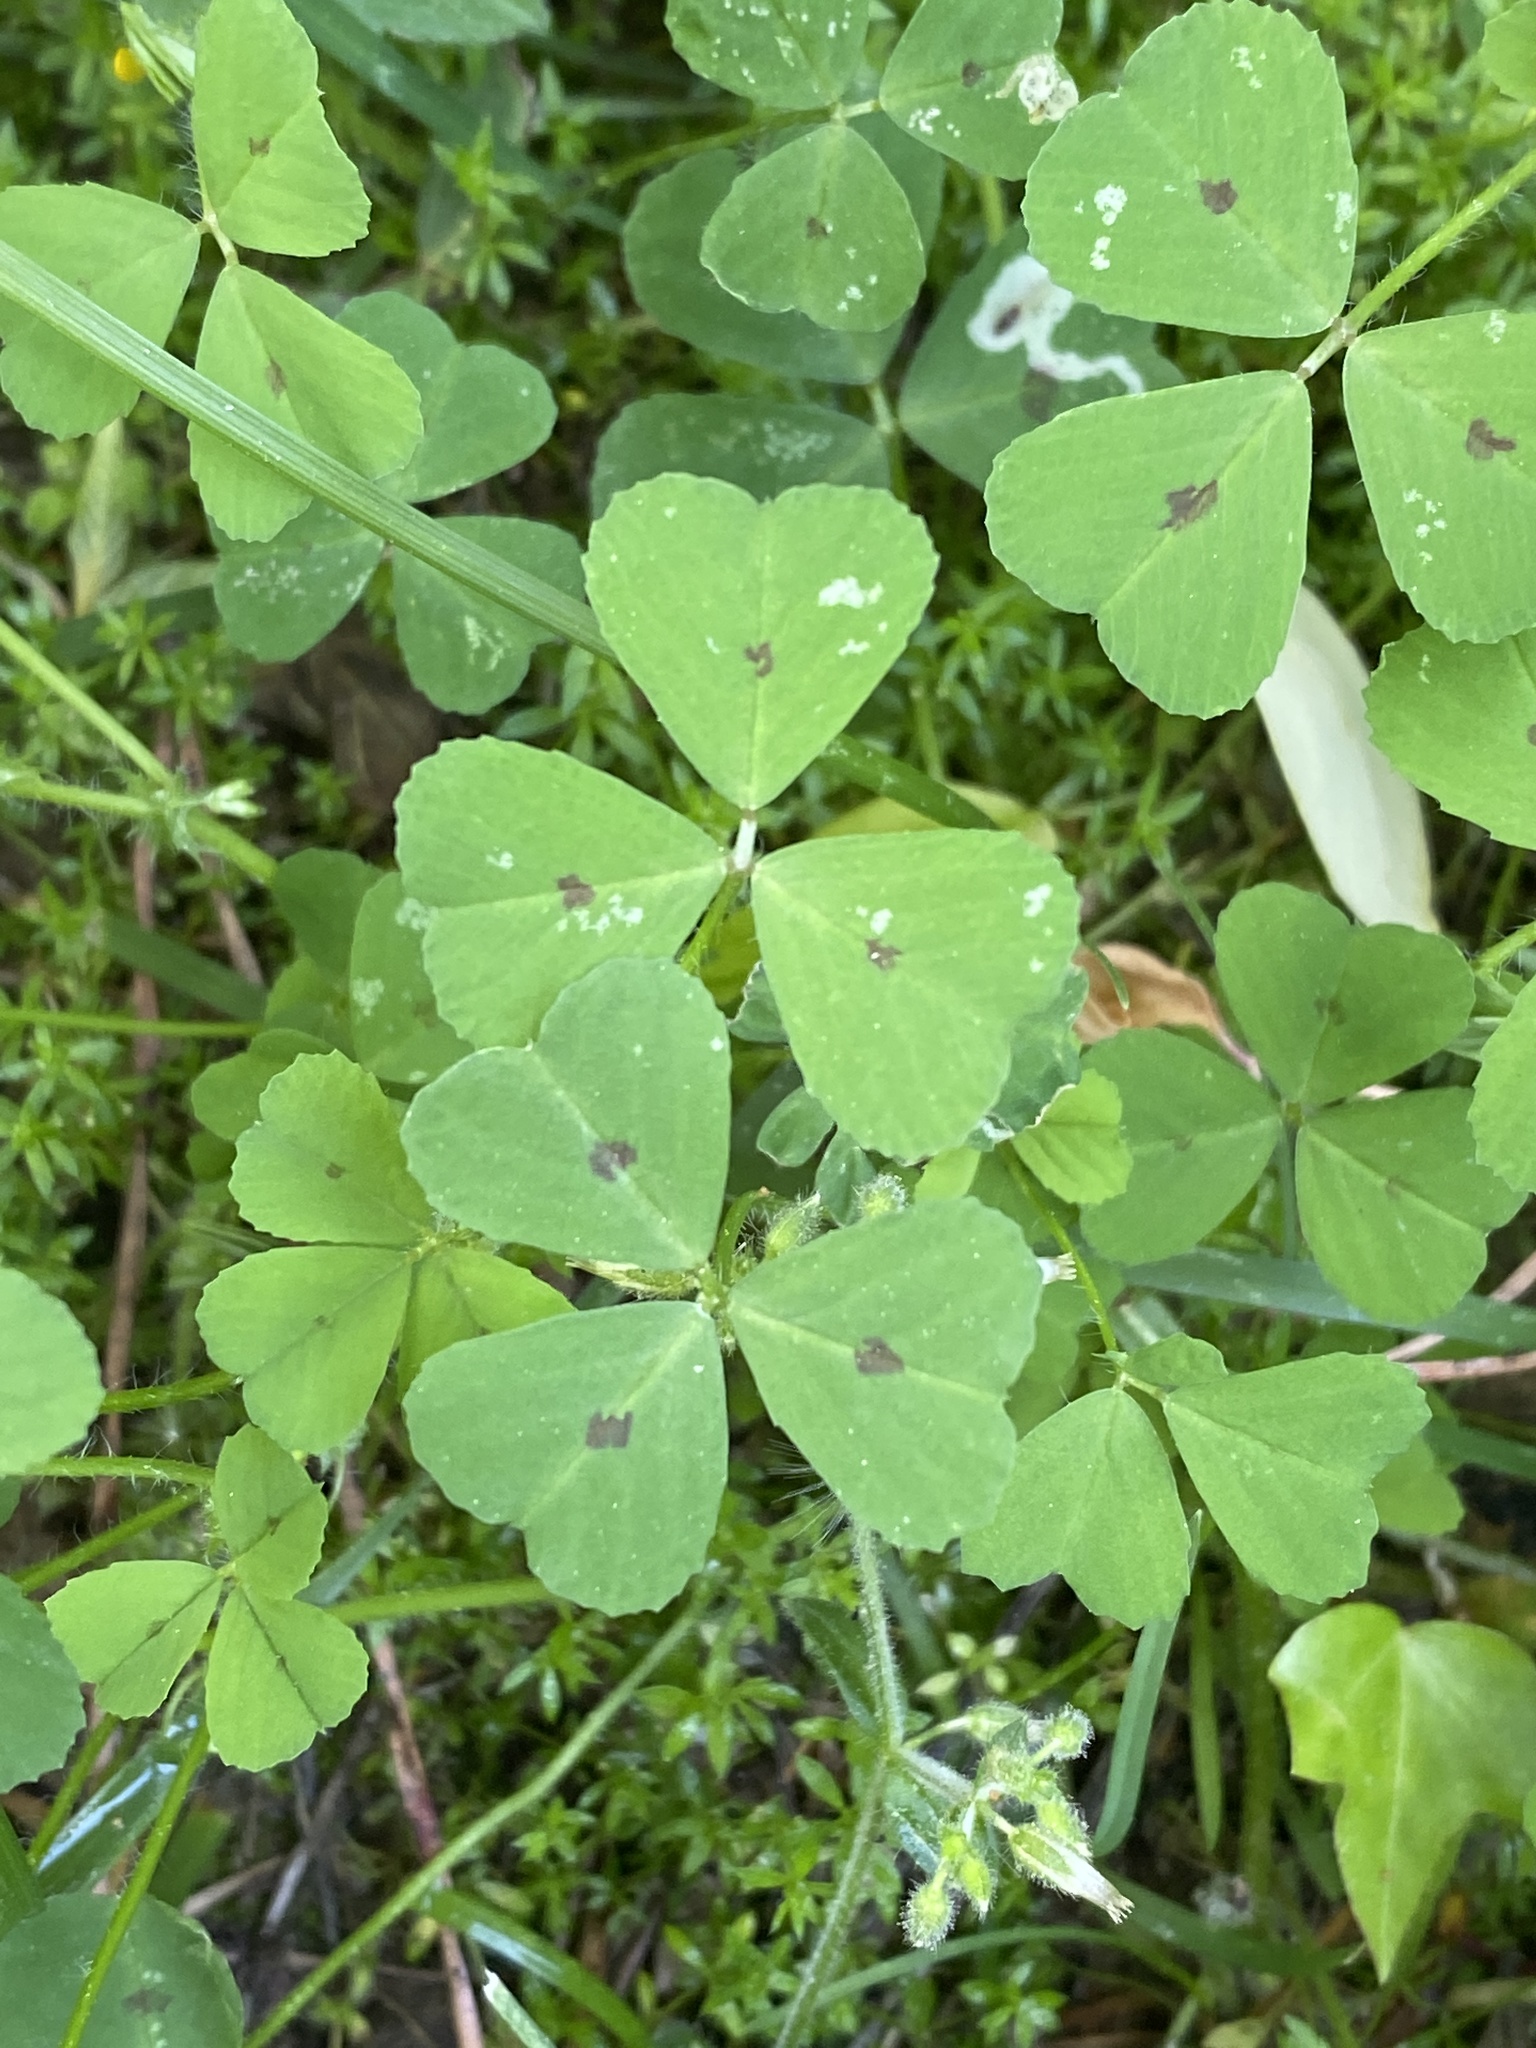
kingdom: Plantae
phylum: Tracheophyta
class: Magnoliopsida
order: Fabales
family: Fabaceae
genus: Medicago
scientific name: Medicago arabica
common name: Spotted medick
